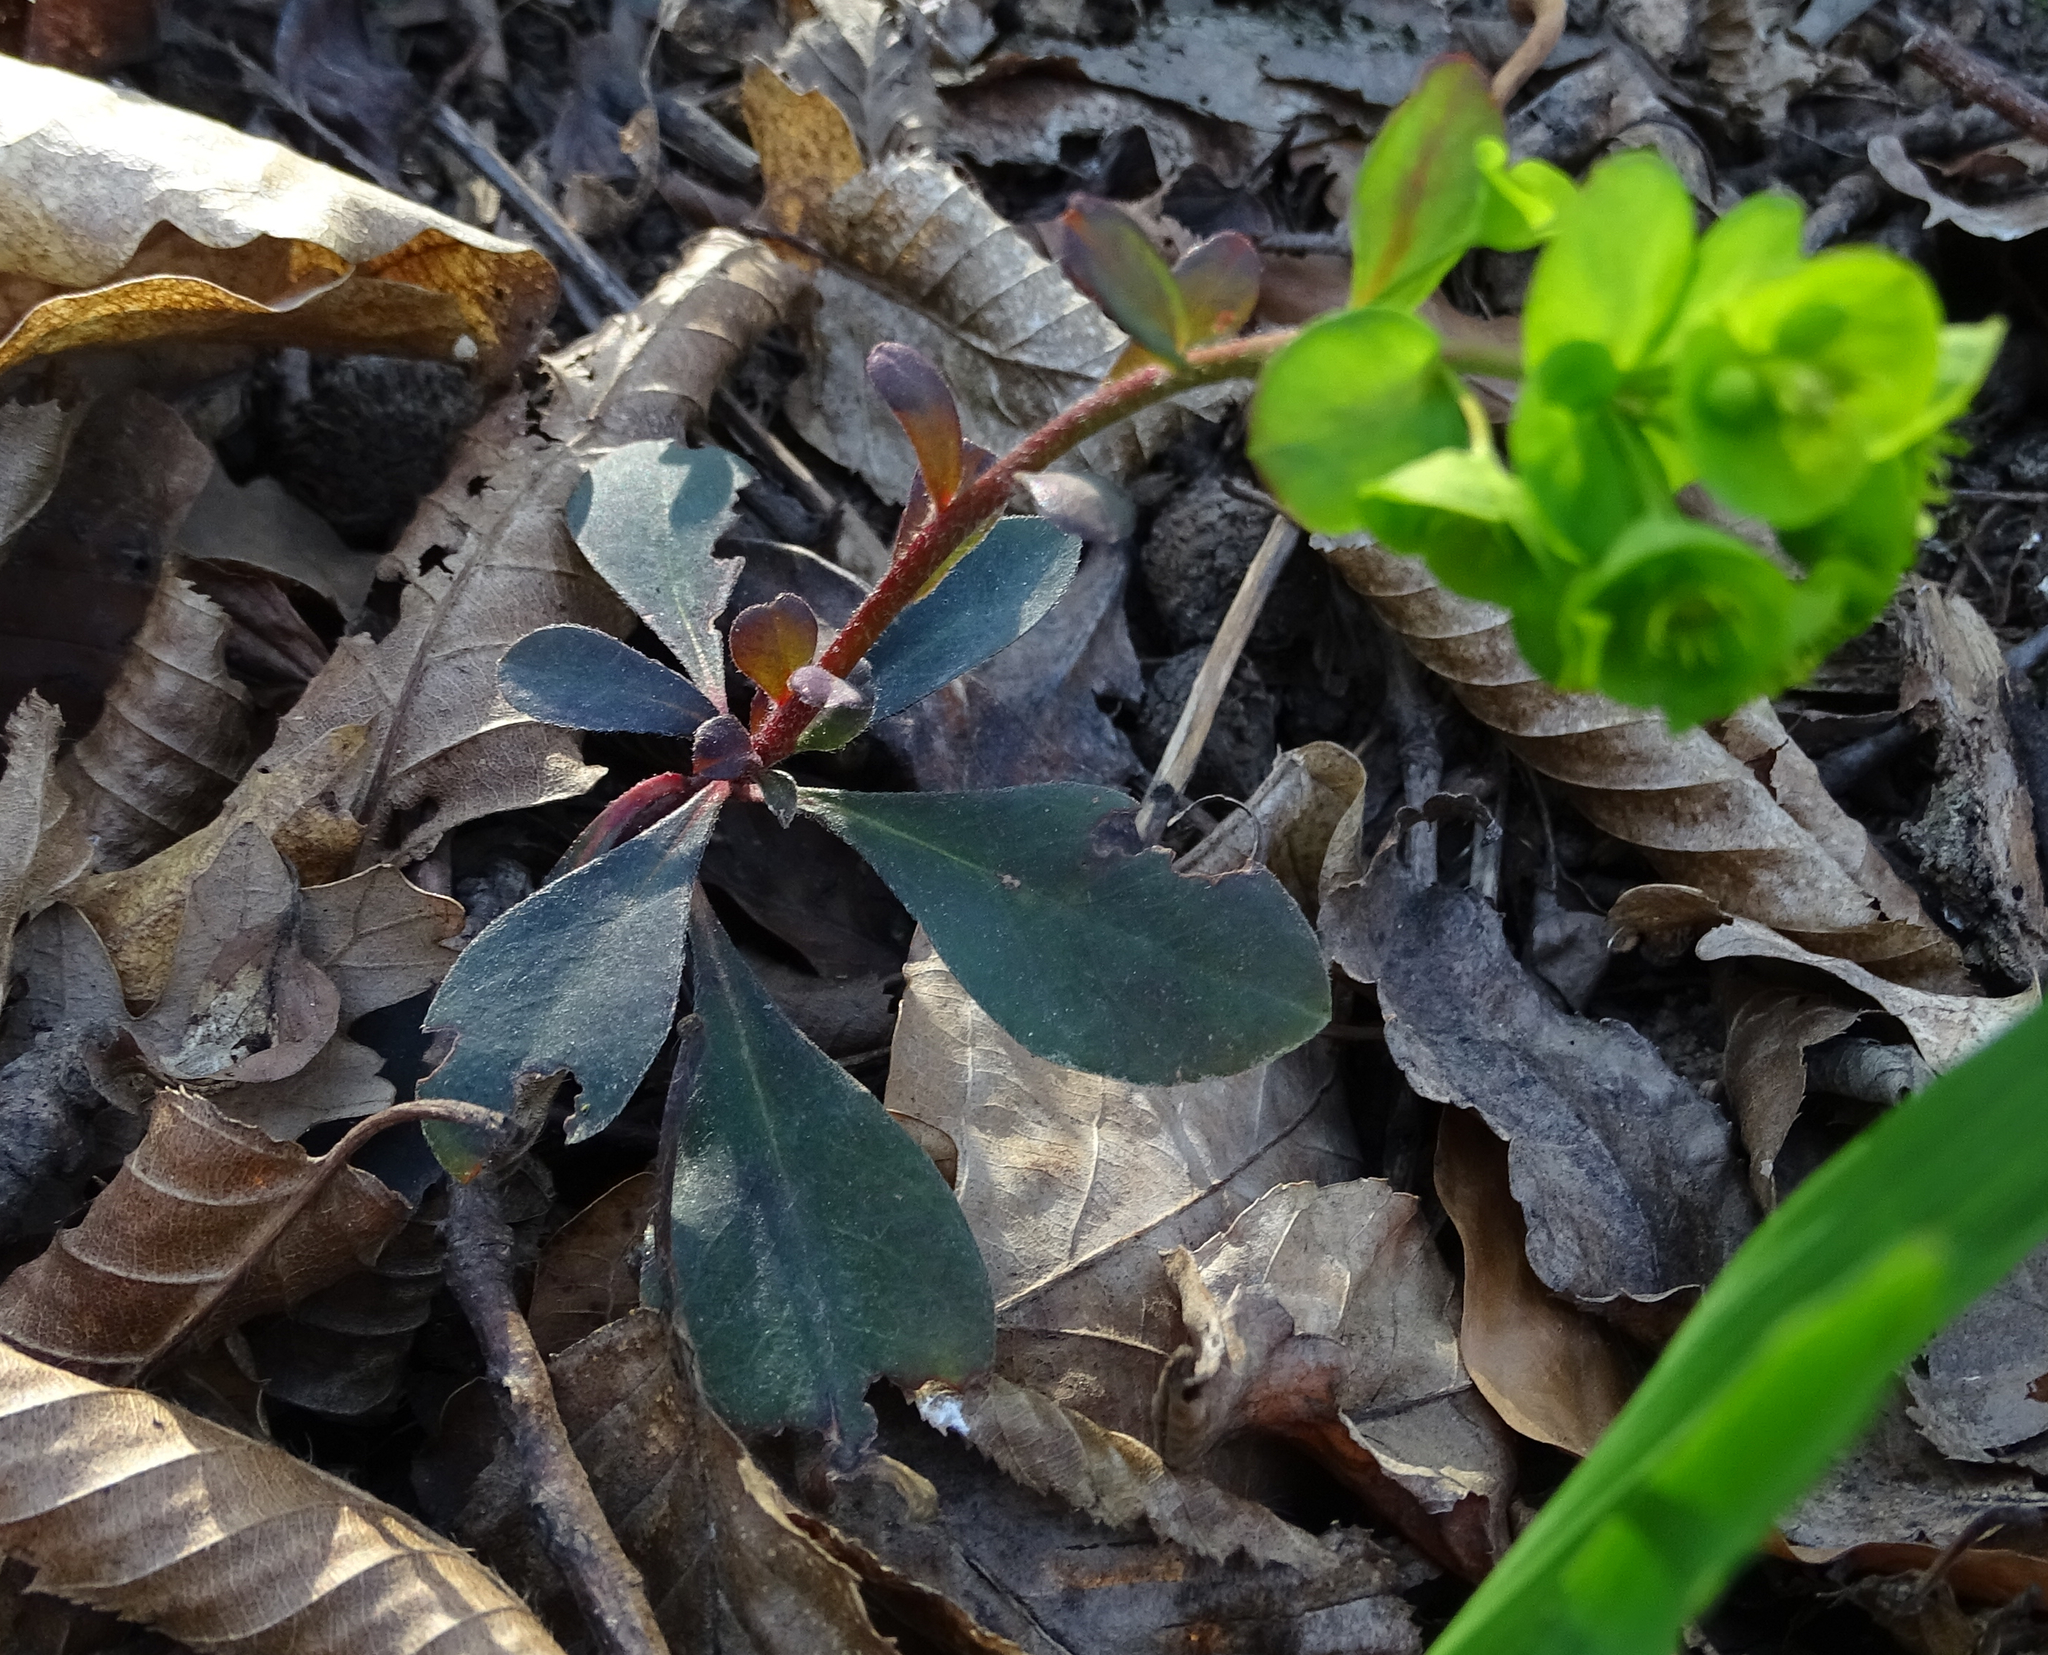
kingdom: Plantae
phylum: Tracheophyta
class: Magnoliopsida
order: Malpighiales
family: Euphorbiaceae
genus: Euphorbia
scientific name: Euphorbia amygdaloides
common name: Wood spurge
